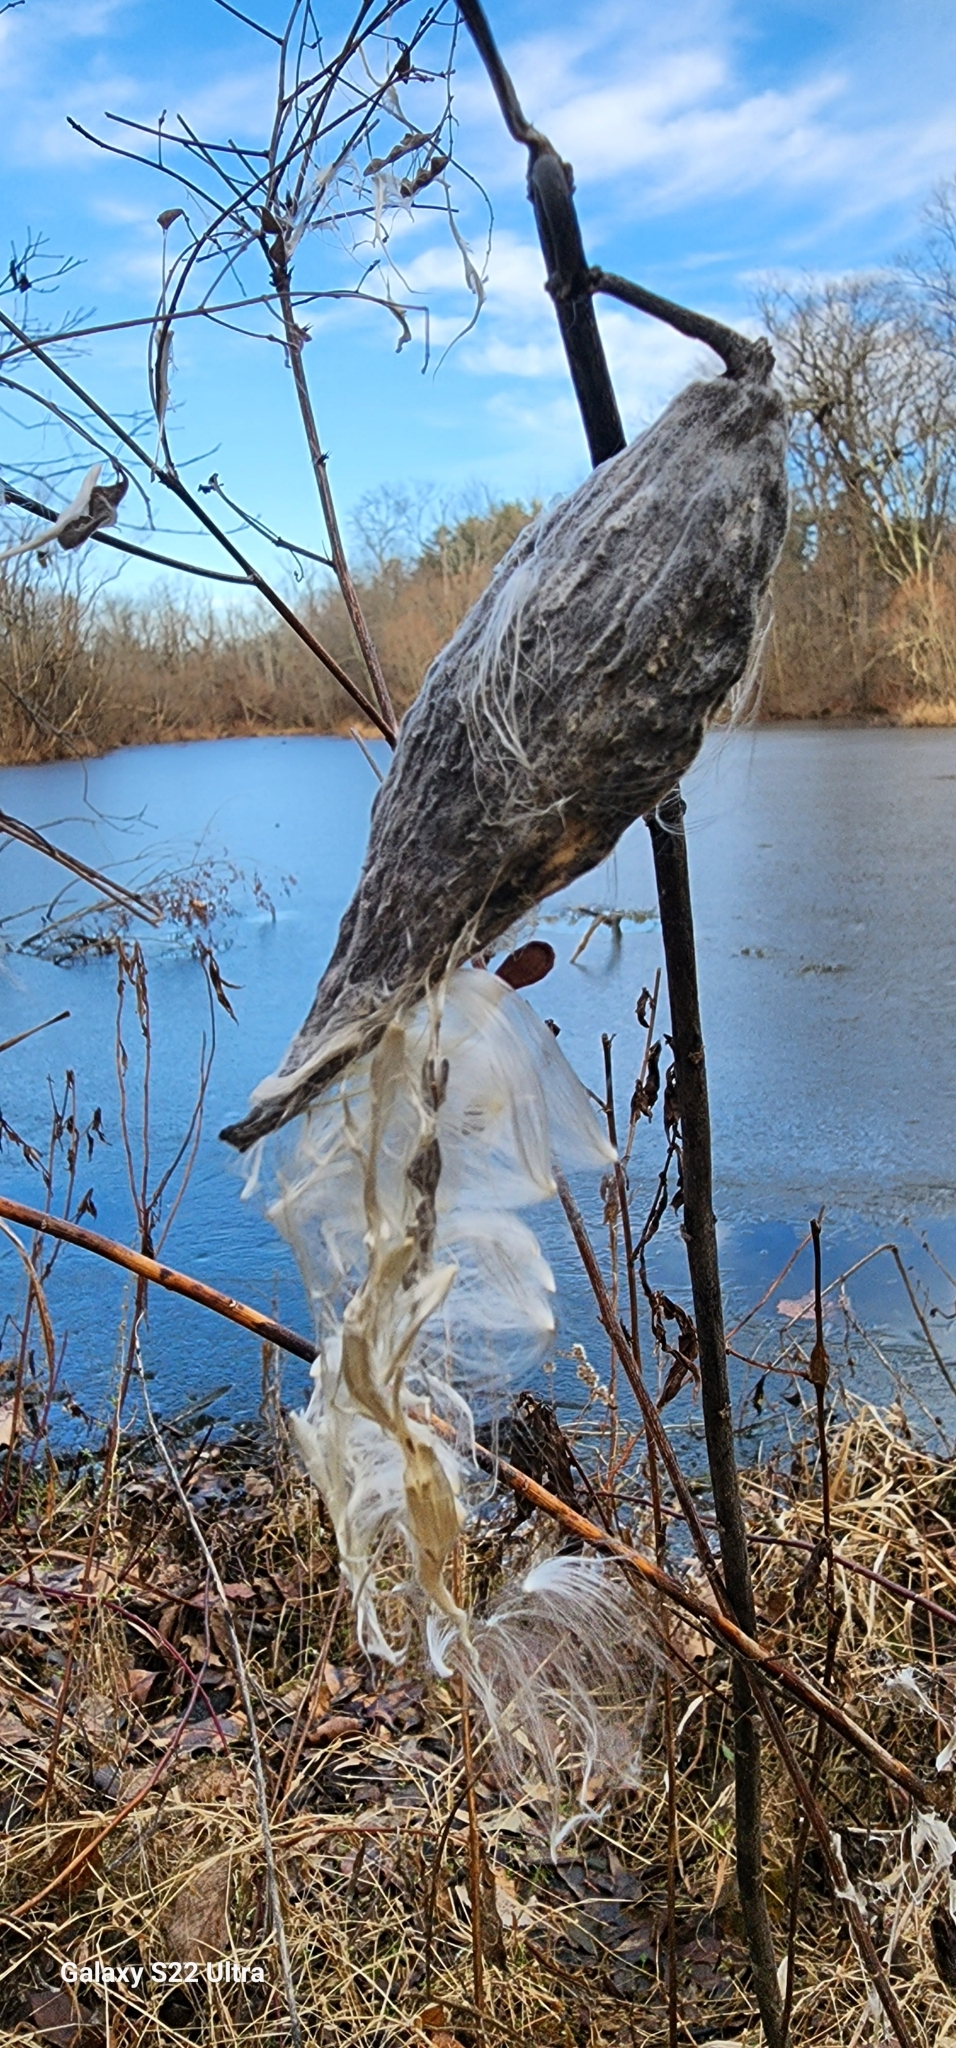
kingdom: Plantae
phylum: Tracheophyta
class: Magnoliopsida
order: Gentianales
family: Apocynaceae
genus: Asclepias
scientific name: Asclepias syriaca
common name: Common milkweed
